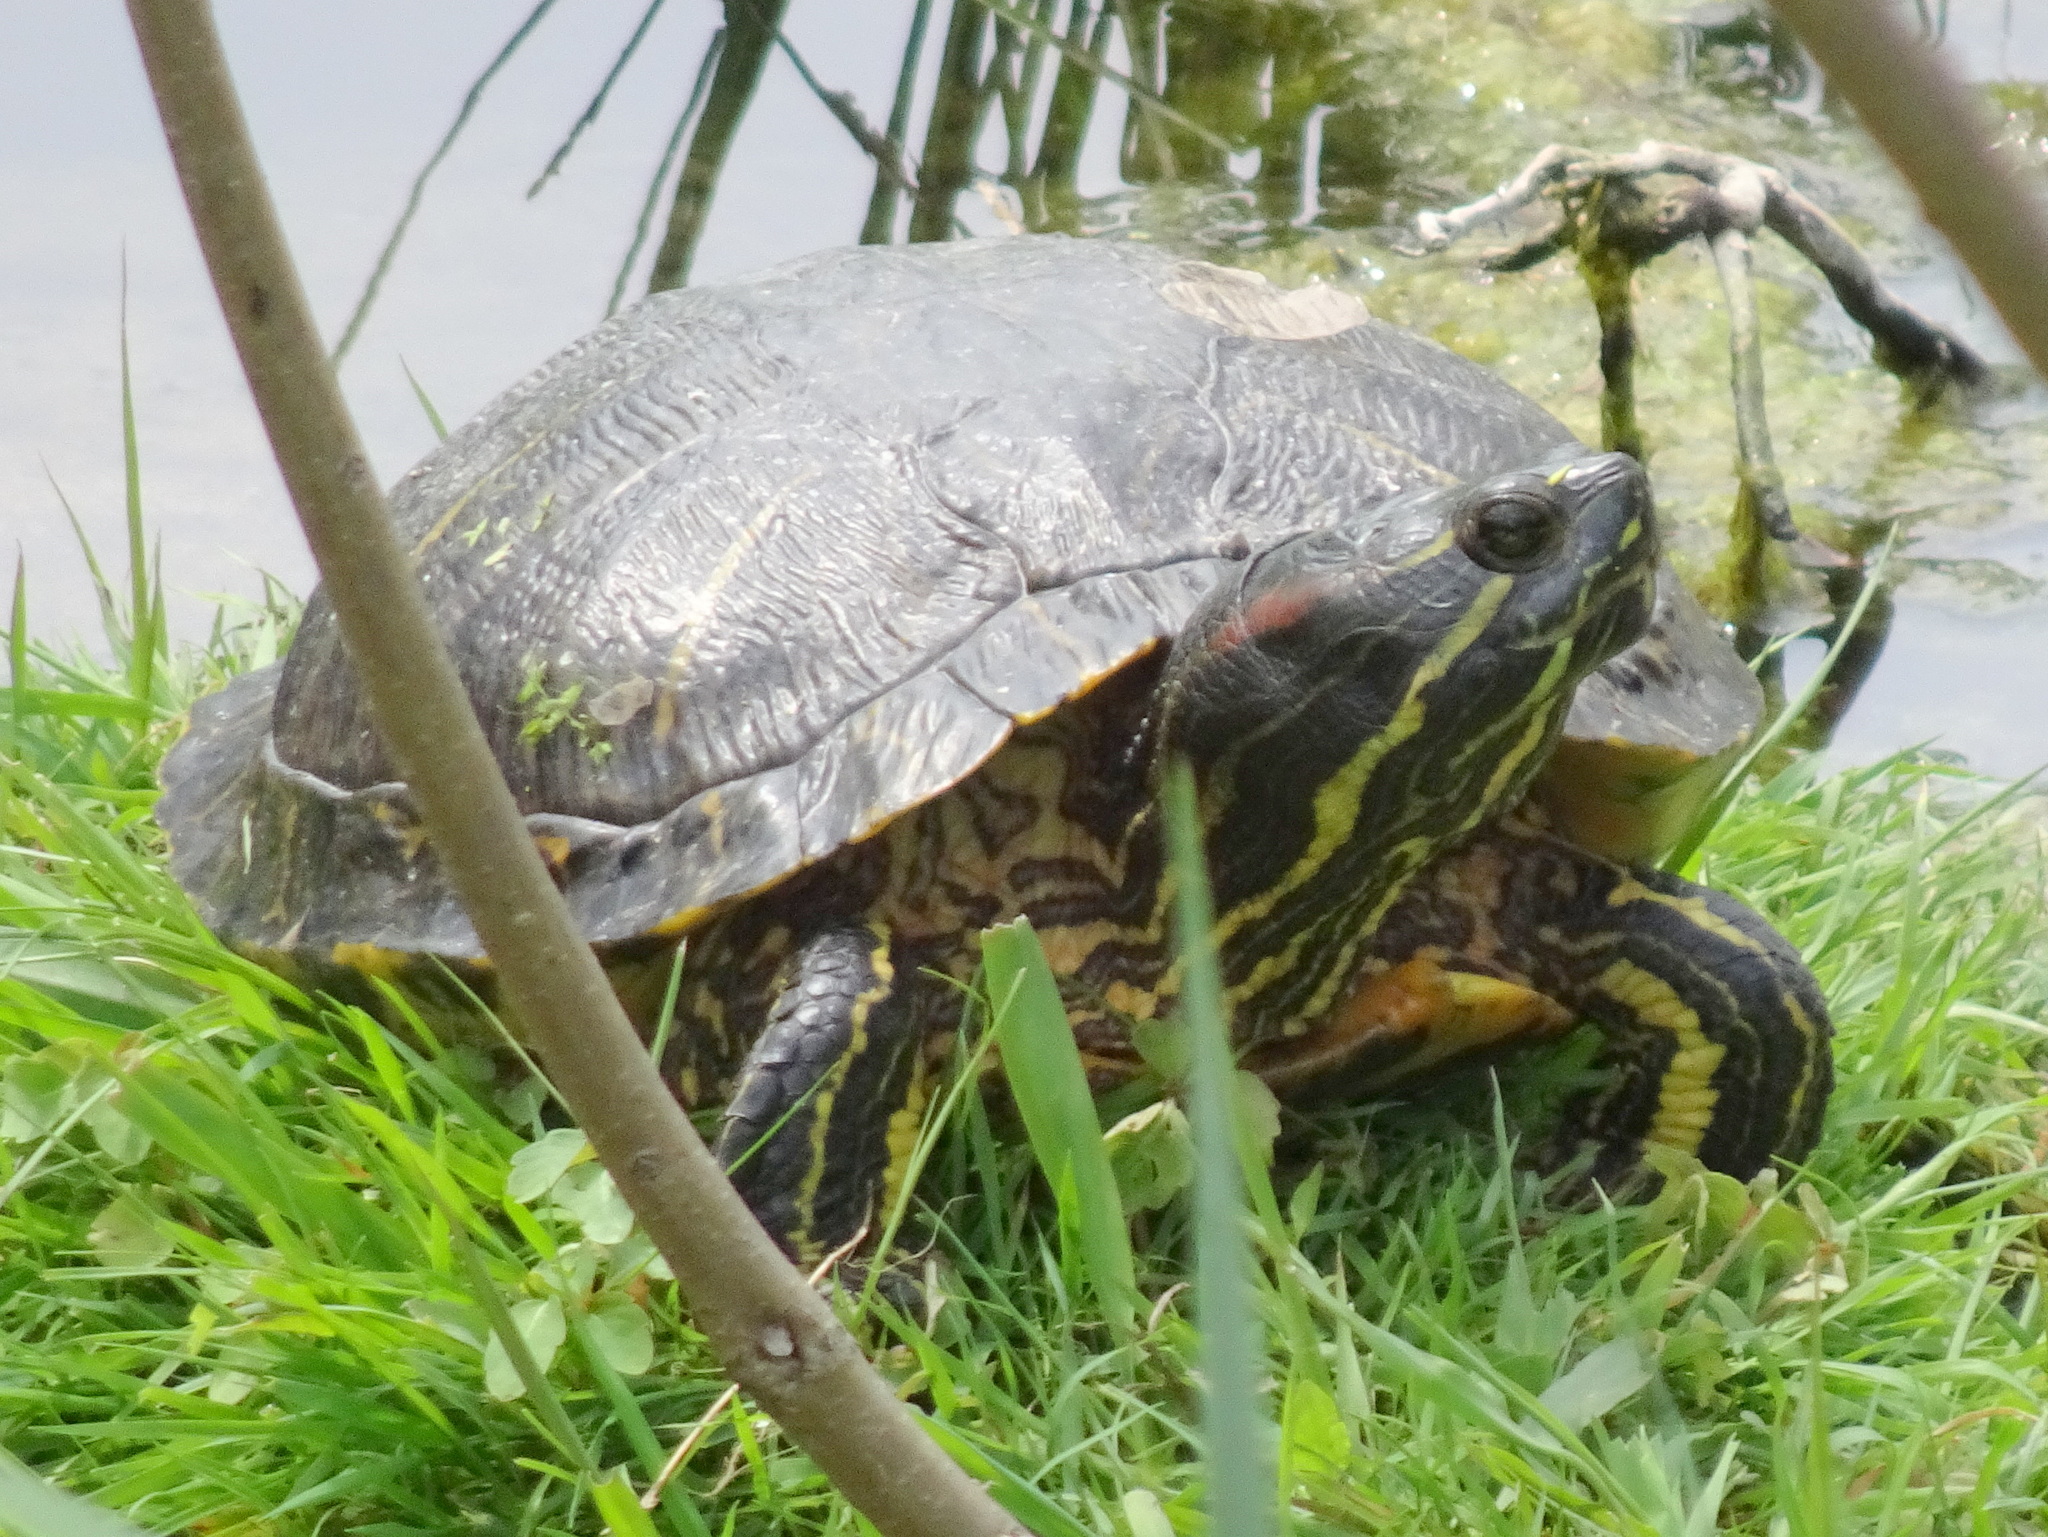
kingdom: Animalia
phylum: Chordata
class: Testudines
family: Emydidae
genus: Trachemys
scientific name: Trachemys scripta
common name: Slider
